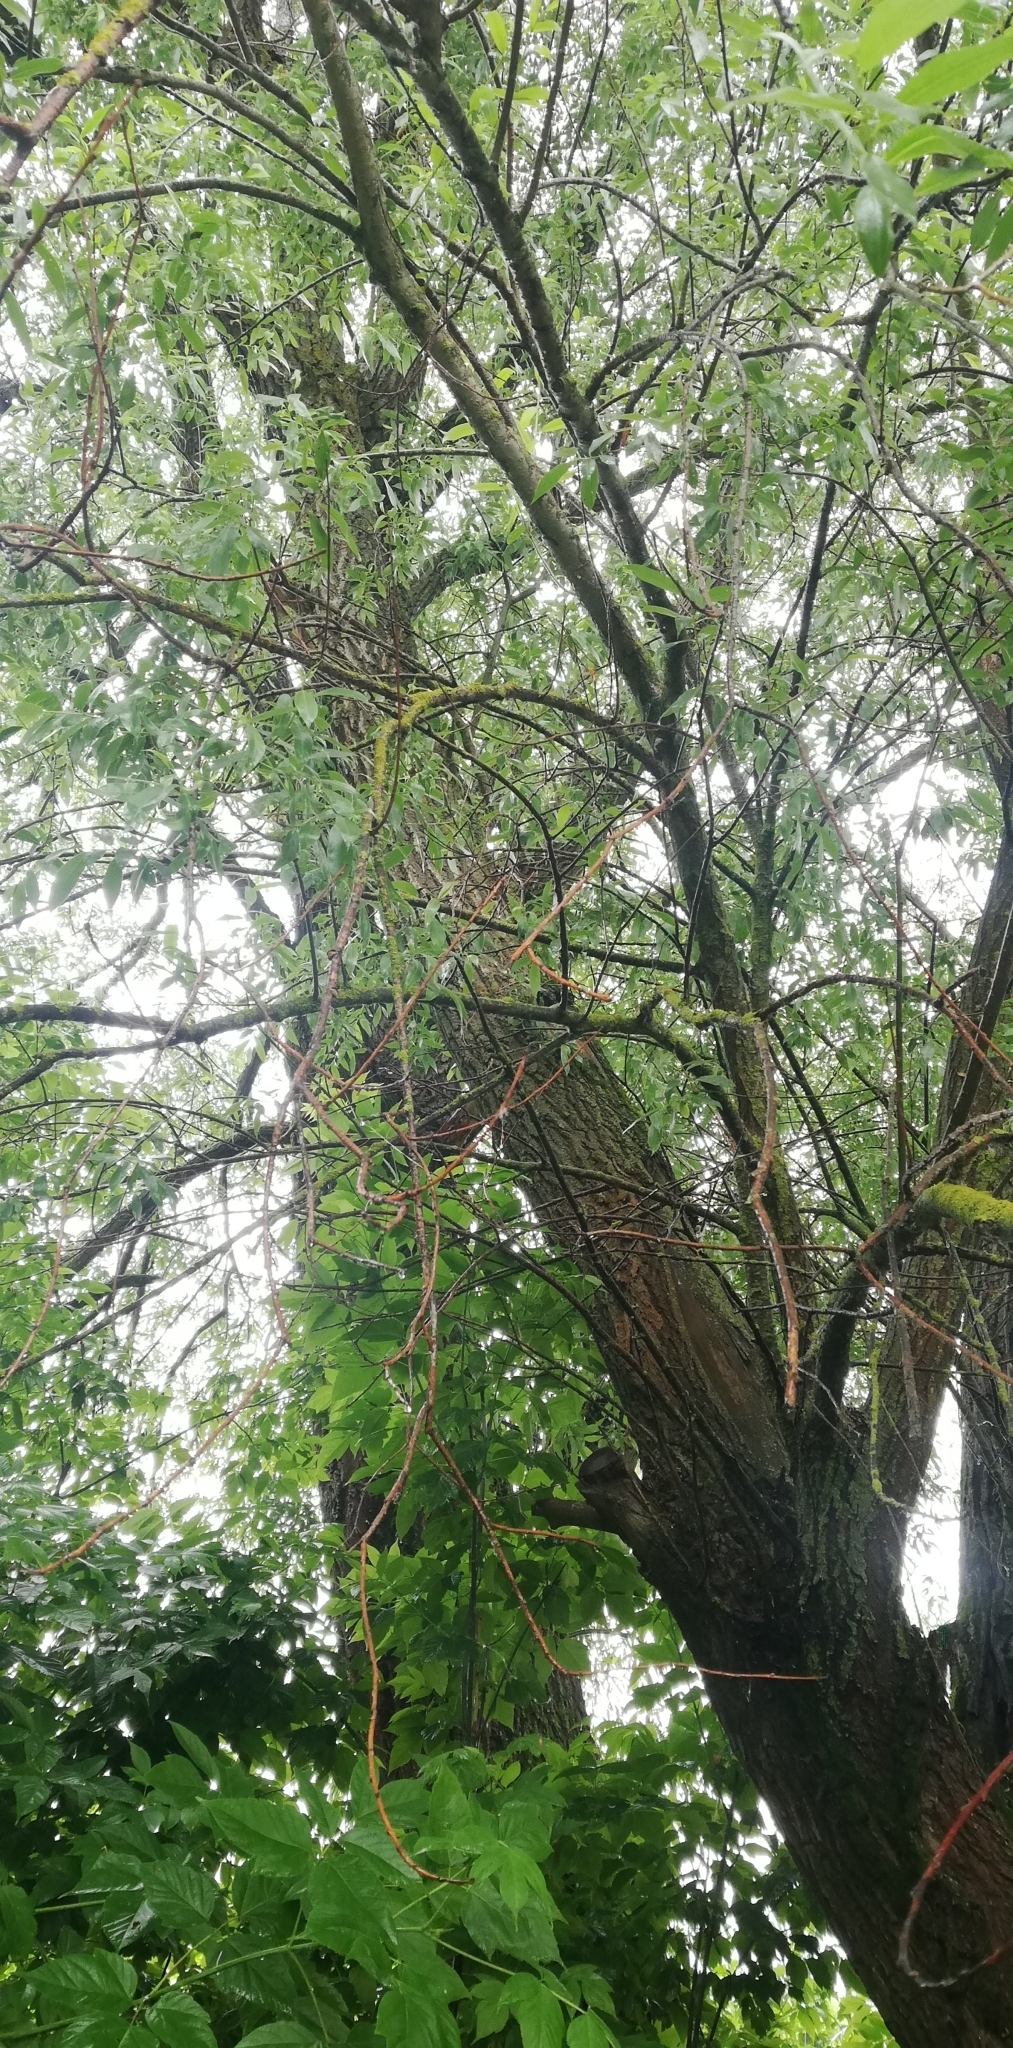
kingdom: Plantae
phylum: Tracheophyta
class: Magnoliopsida
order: Malpighiales
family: Salicaceae
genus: Salix
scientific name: Salix alba
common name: White willow
